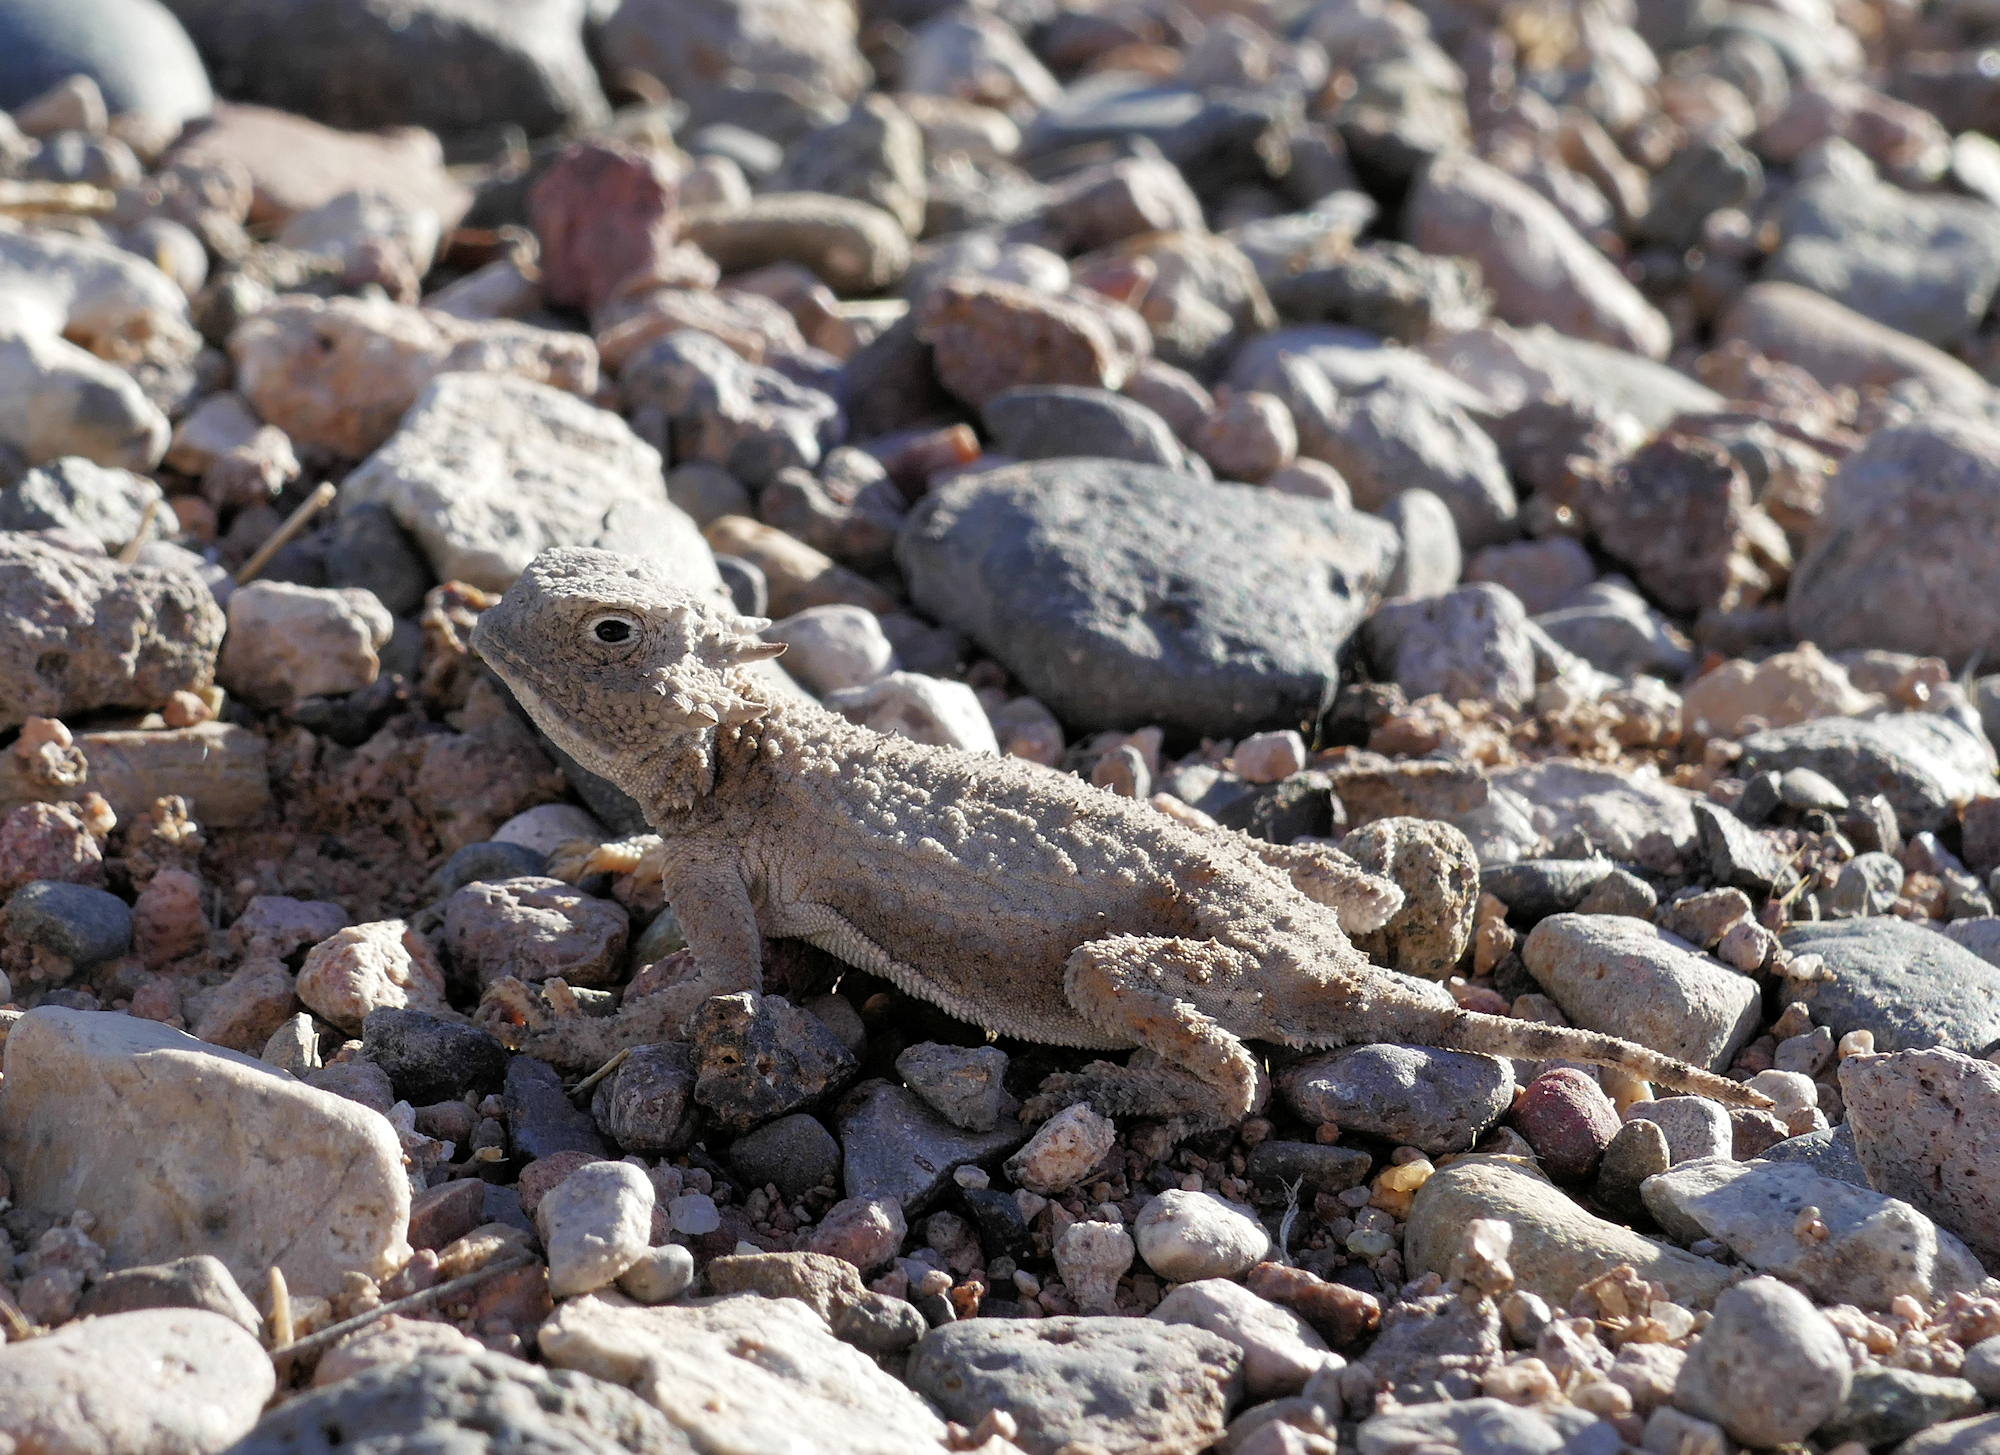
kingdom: Animalia
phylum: Chordata
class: Squamata
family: Phrynosomatidae
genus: Phrynosoma
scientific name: Phrynosoma modestum
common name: Roundtail horned lizard
